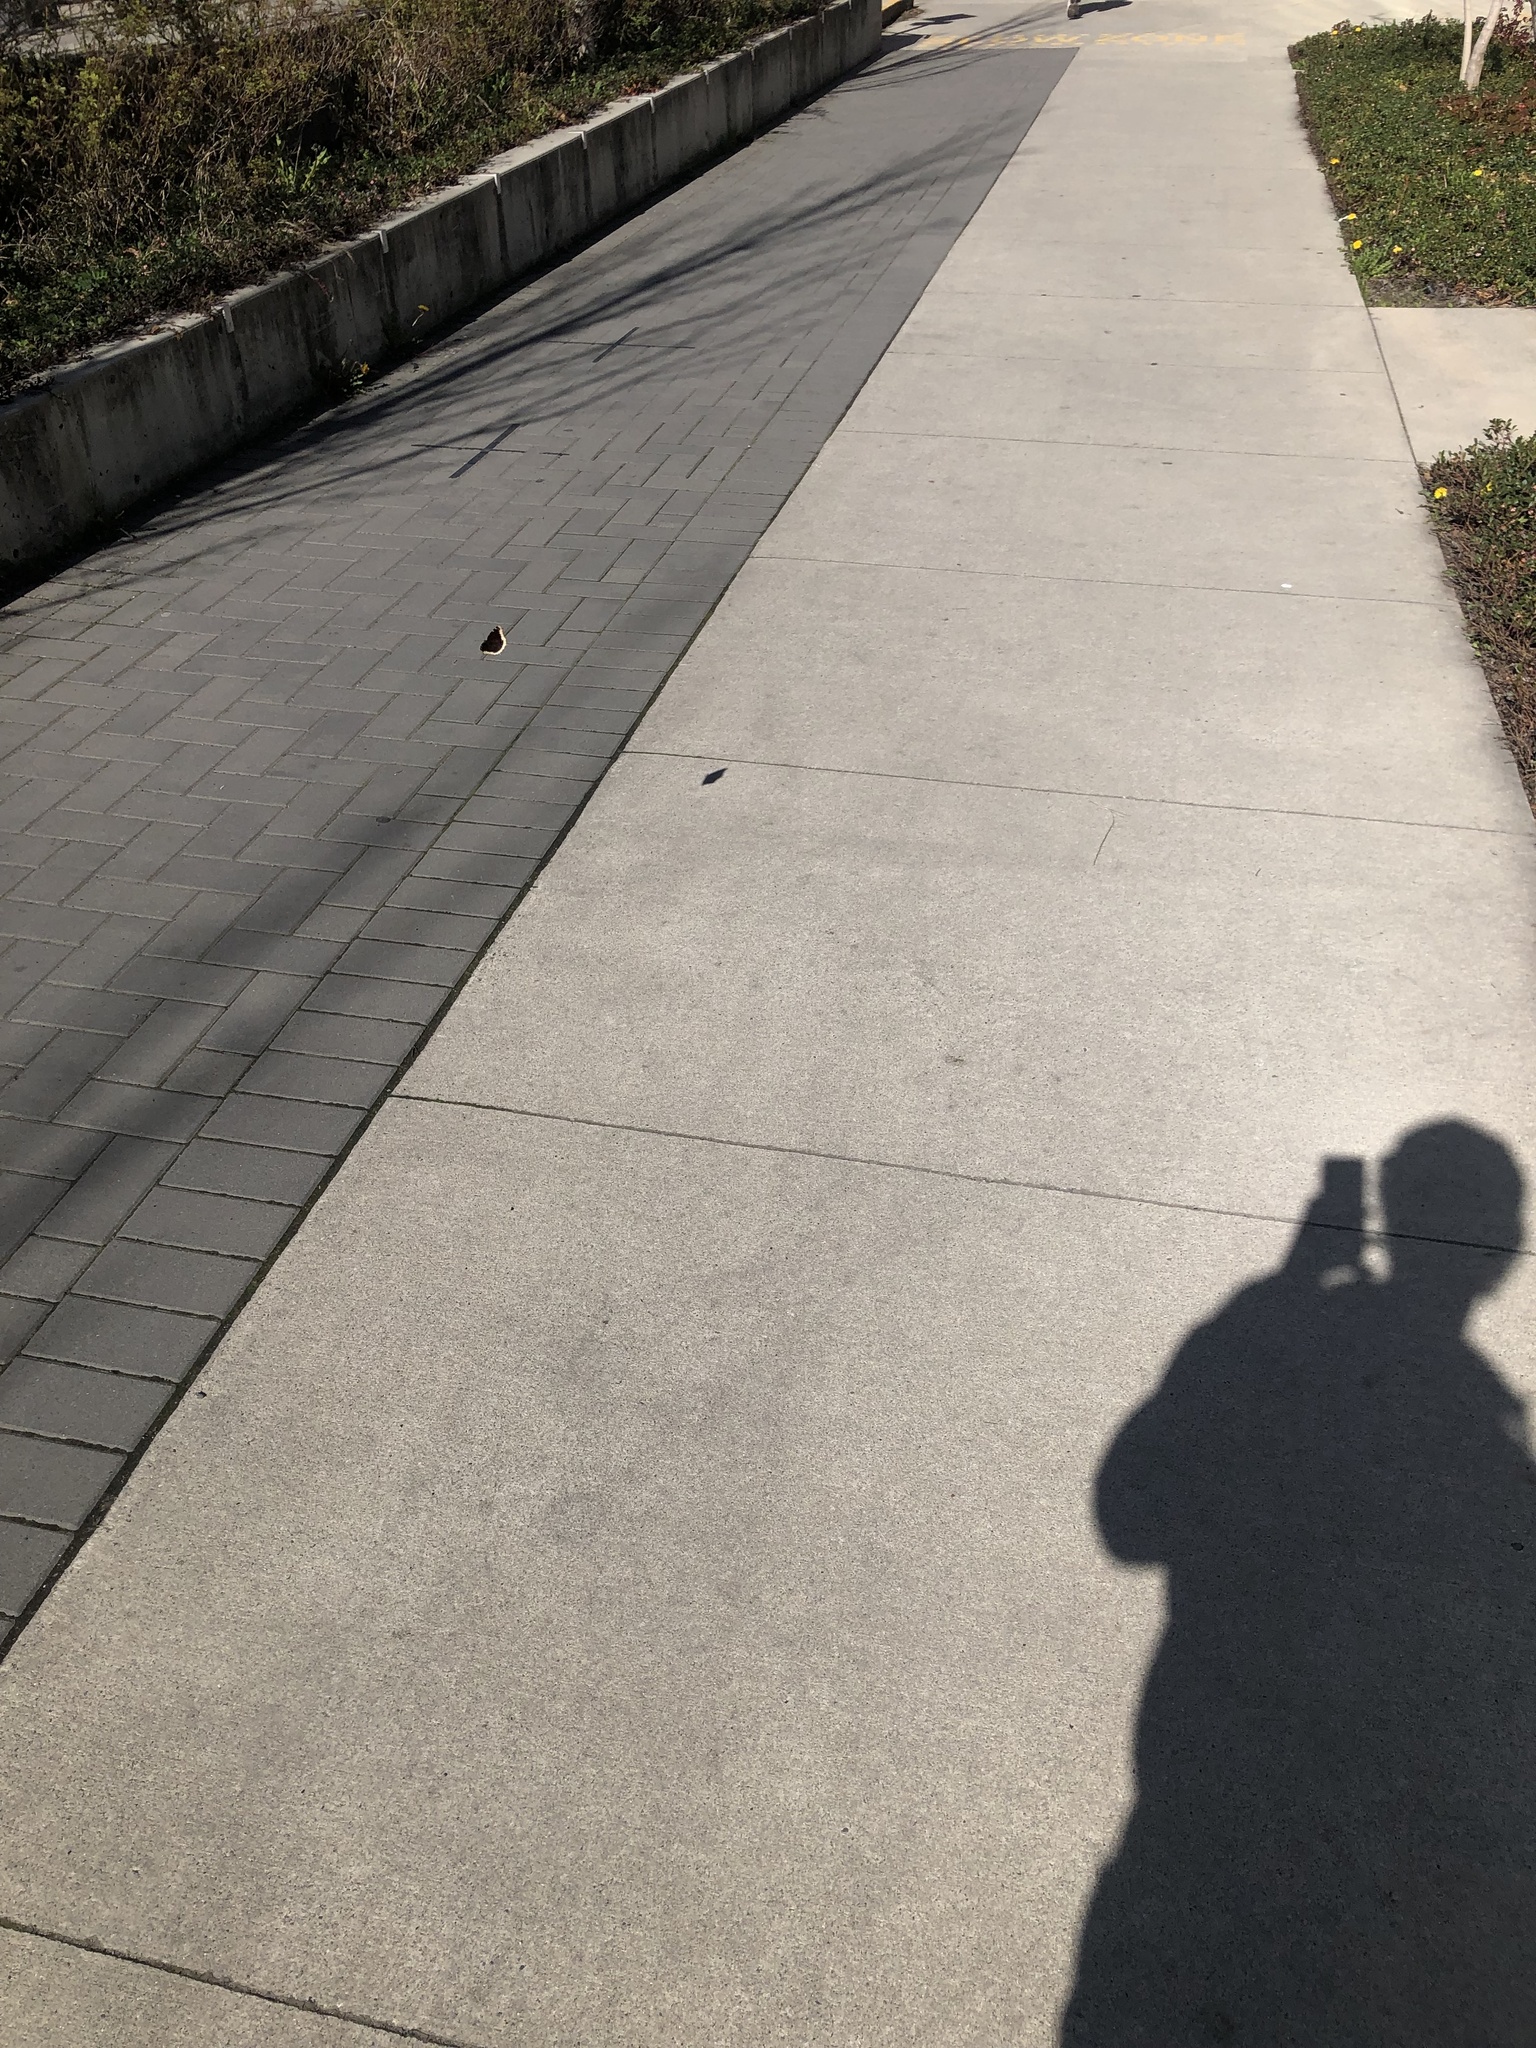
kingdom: Animalia
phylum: Arthropoda
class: Insecta
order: Lepidoptera
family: Nymphalidae
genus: Nymphalis
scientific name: Nymphalis antiopa
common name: Camberwell beauty
